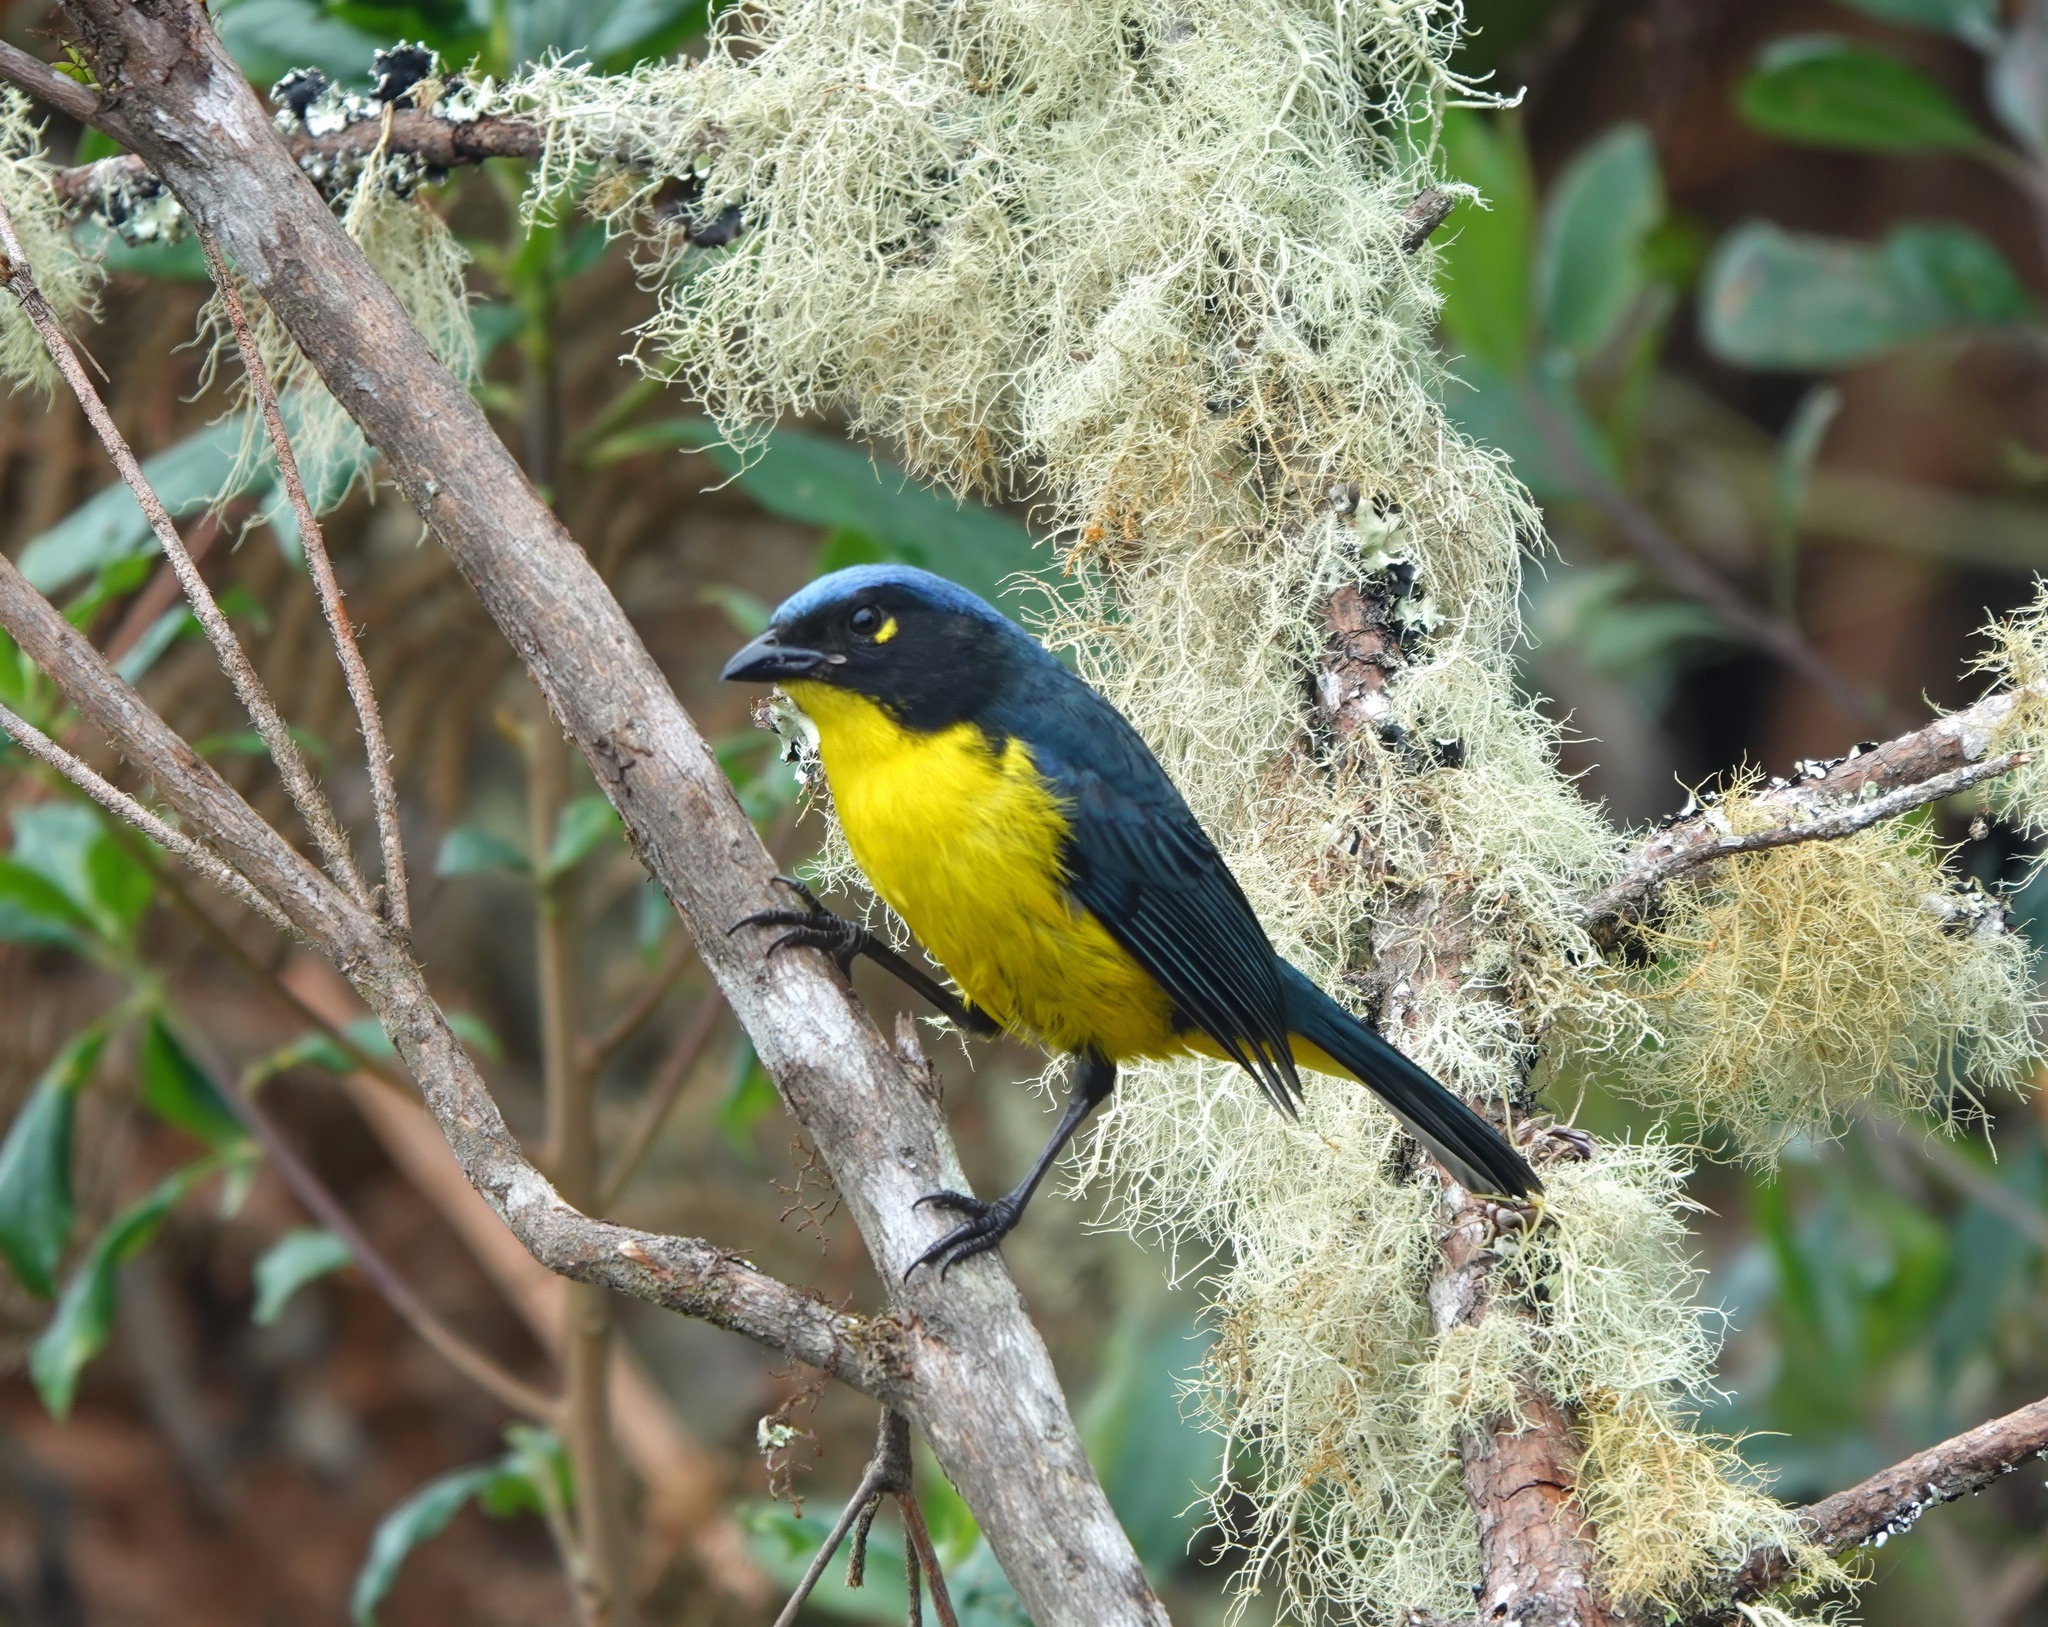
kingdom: Animalia
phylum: Chordata
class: Aves
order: Passeriformes
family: Thraupidae
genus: Anisognathus
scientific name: Anisognathus melanogenys
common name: Santa marta mountain tanager
